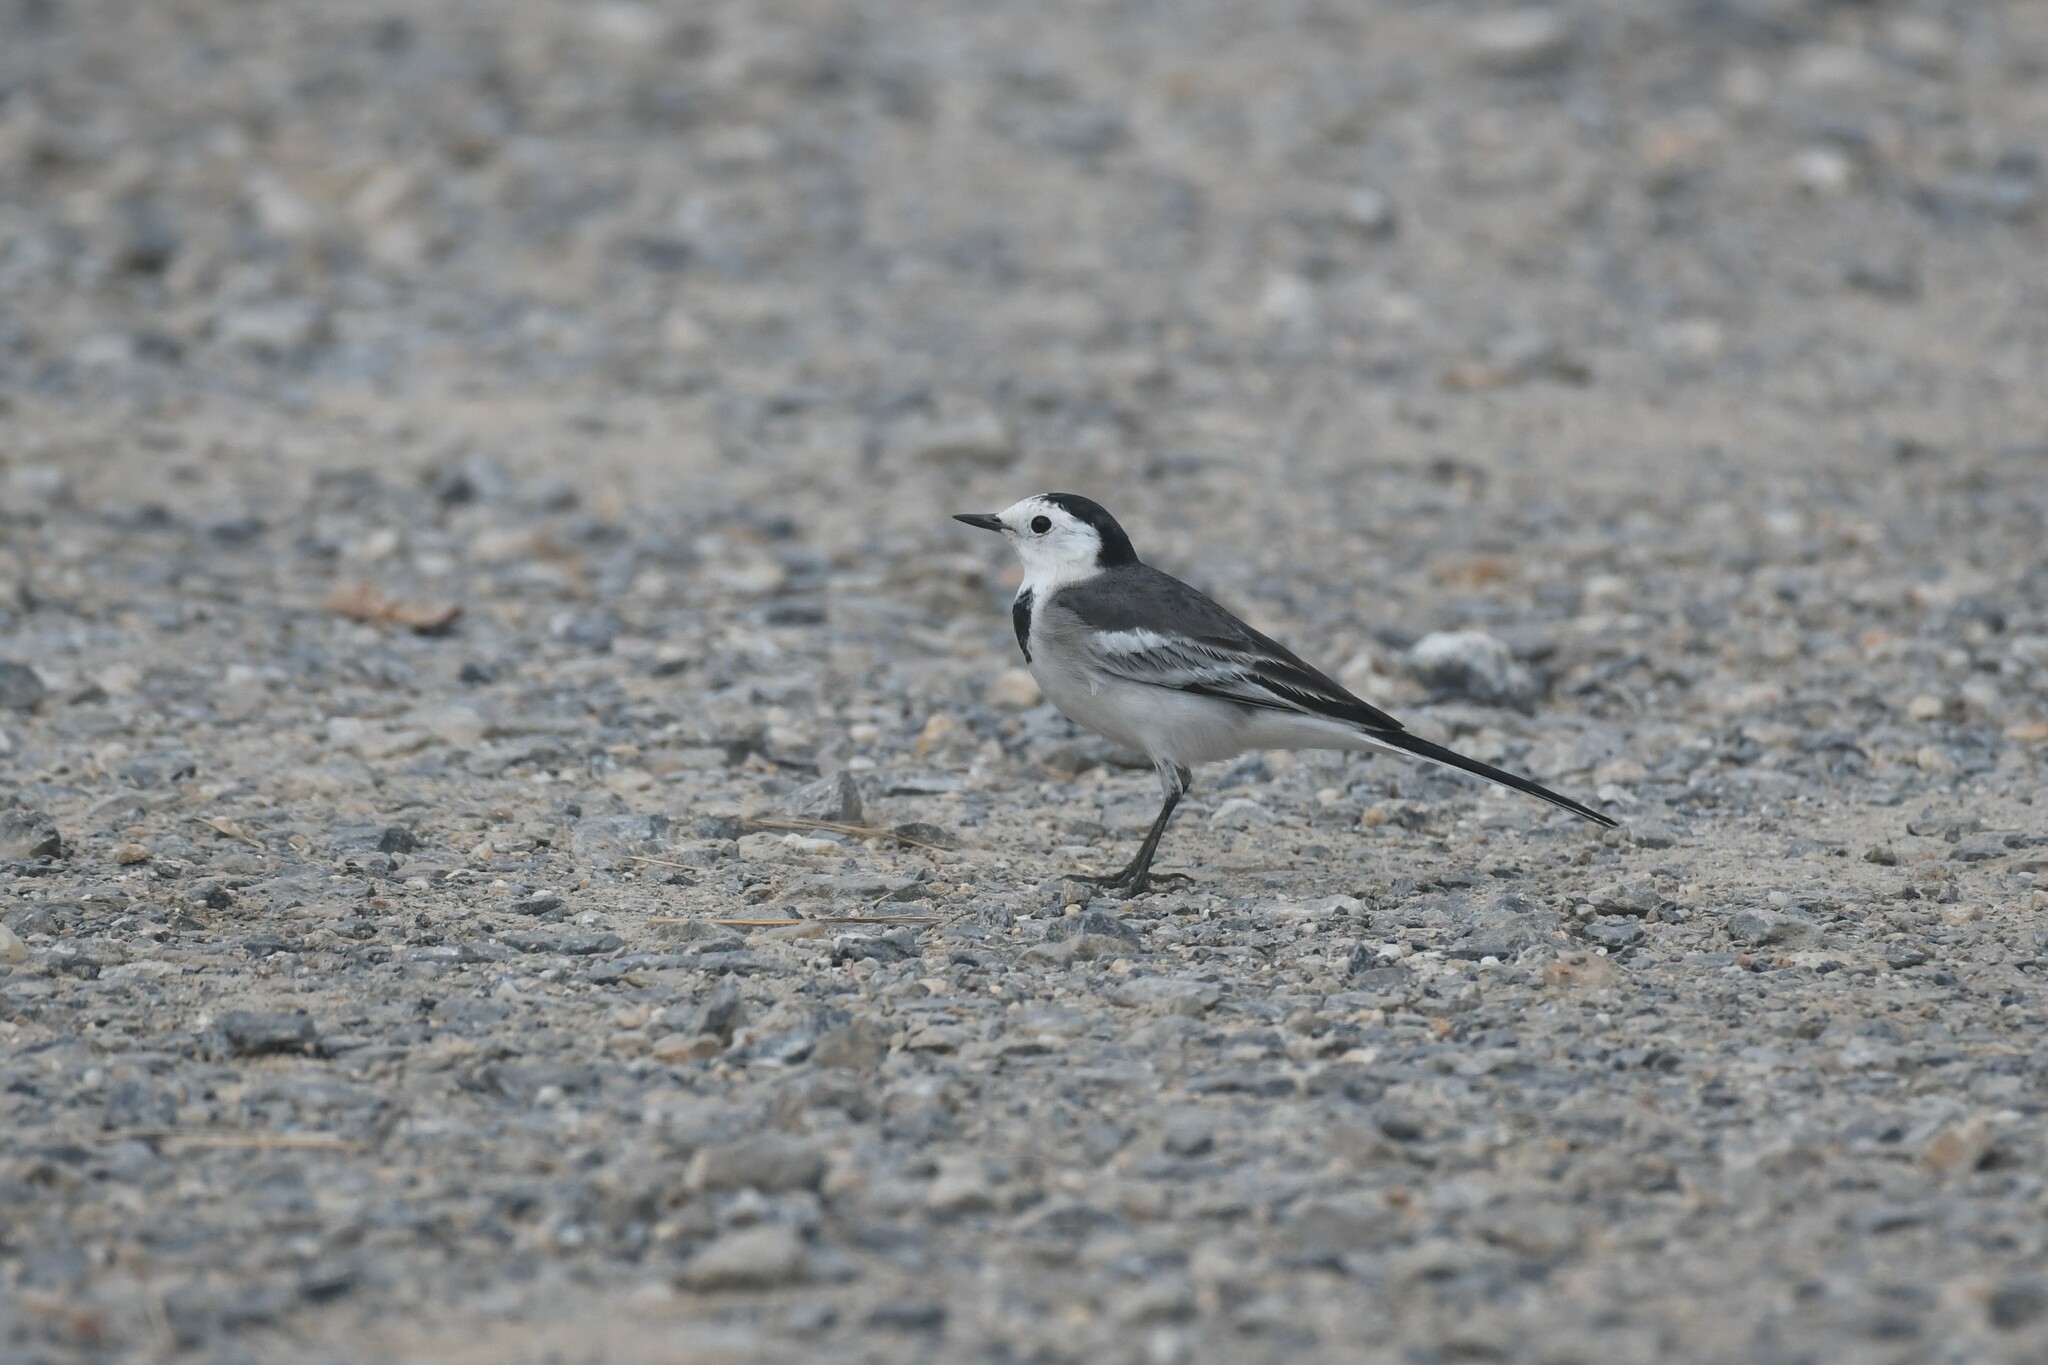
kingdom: Animalia
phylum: Chordata
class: Aves
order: Passeriformes
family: Motacillidae
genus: Motacilla
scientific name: Motacilla alba
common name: White wagtail
